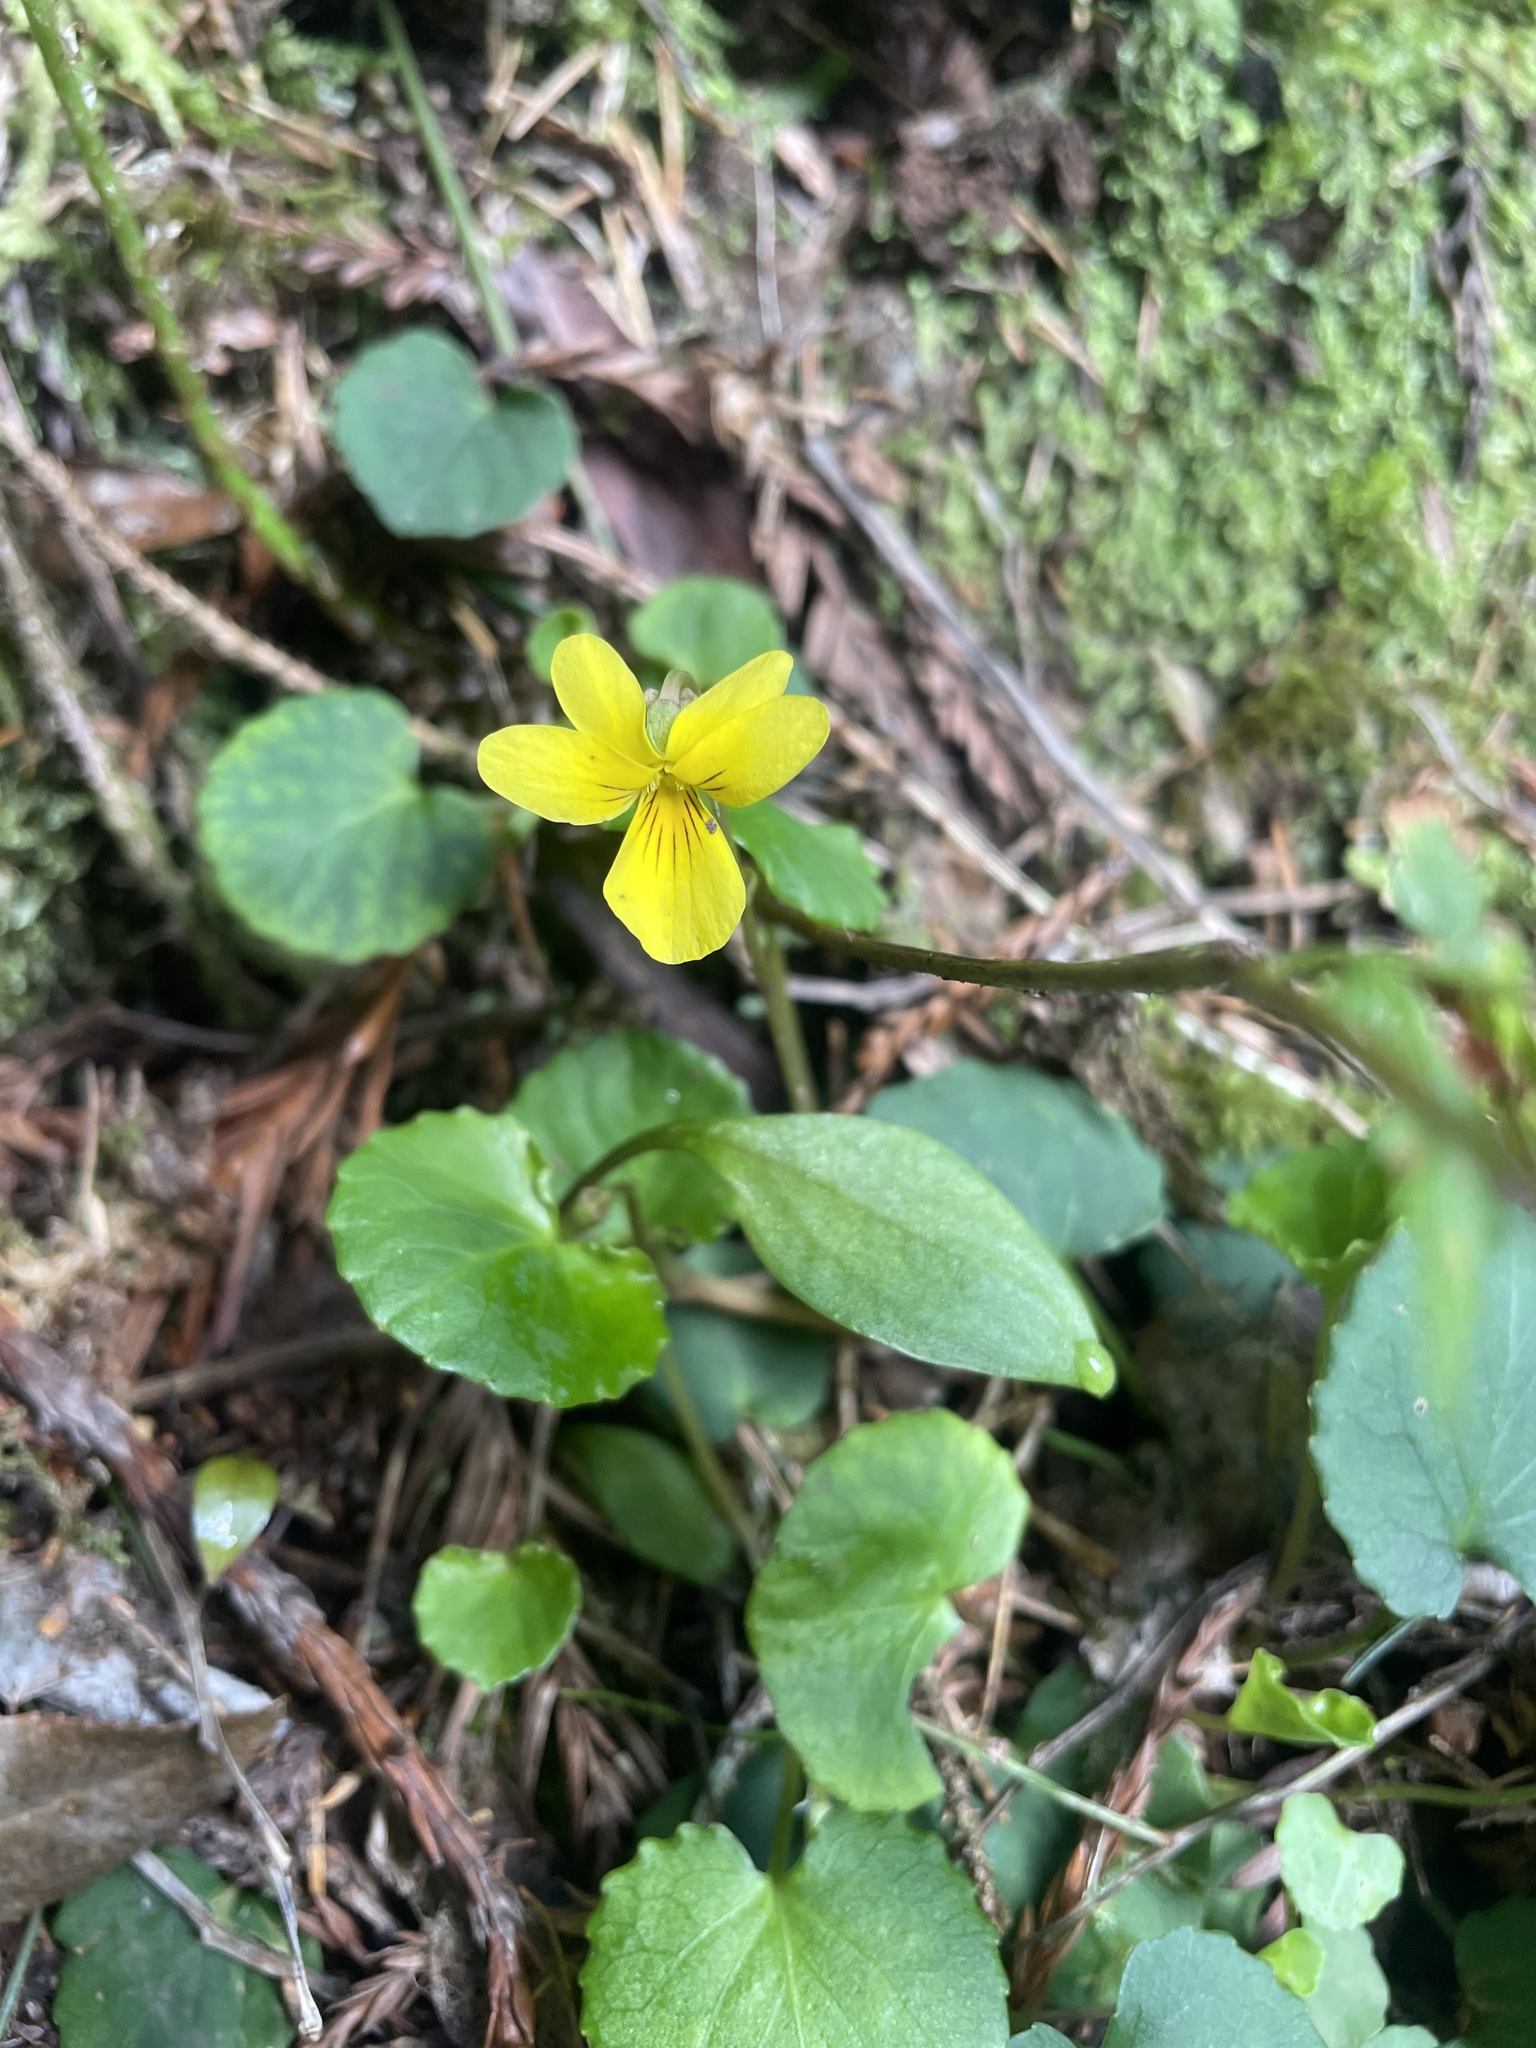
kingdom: Plantae
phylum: Tracheophyta
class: Magnoliopsida
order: Malpighiales
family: Violaceae
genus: Viola
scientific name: Viola sempervirens
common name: Evergreen violet
